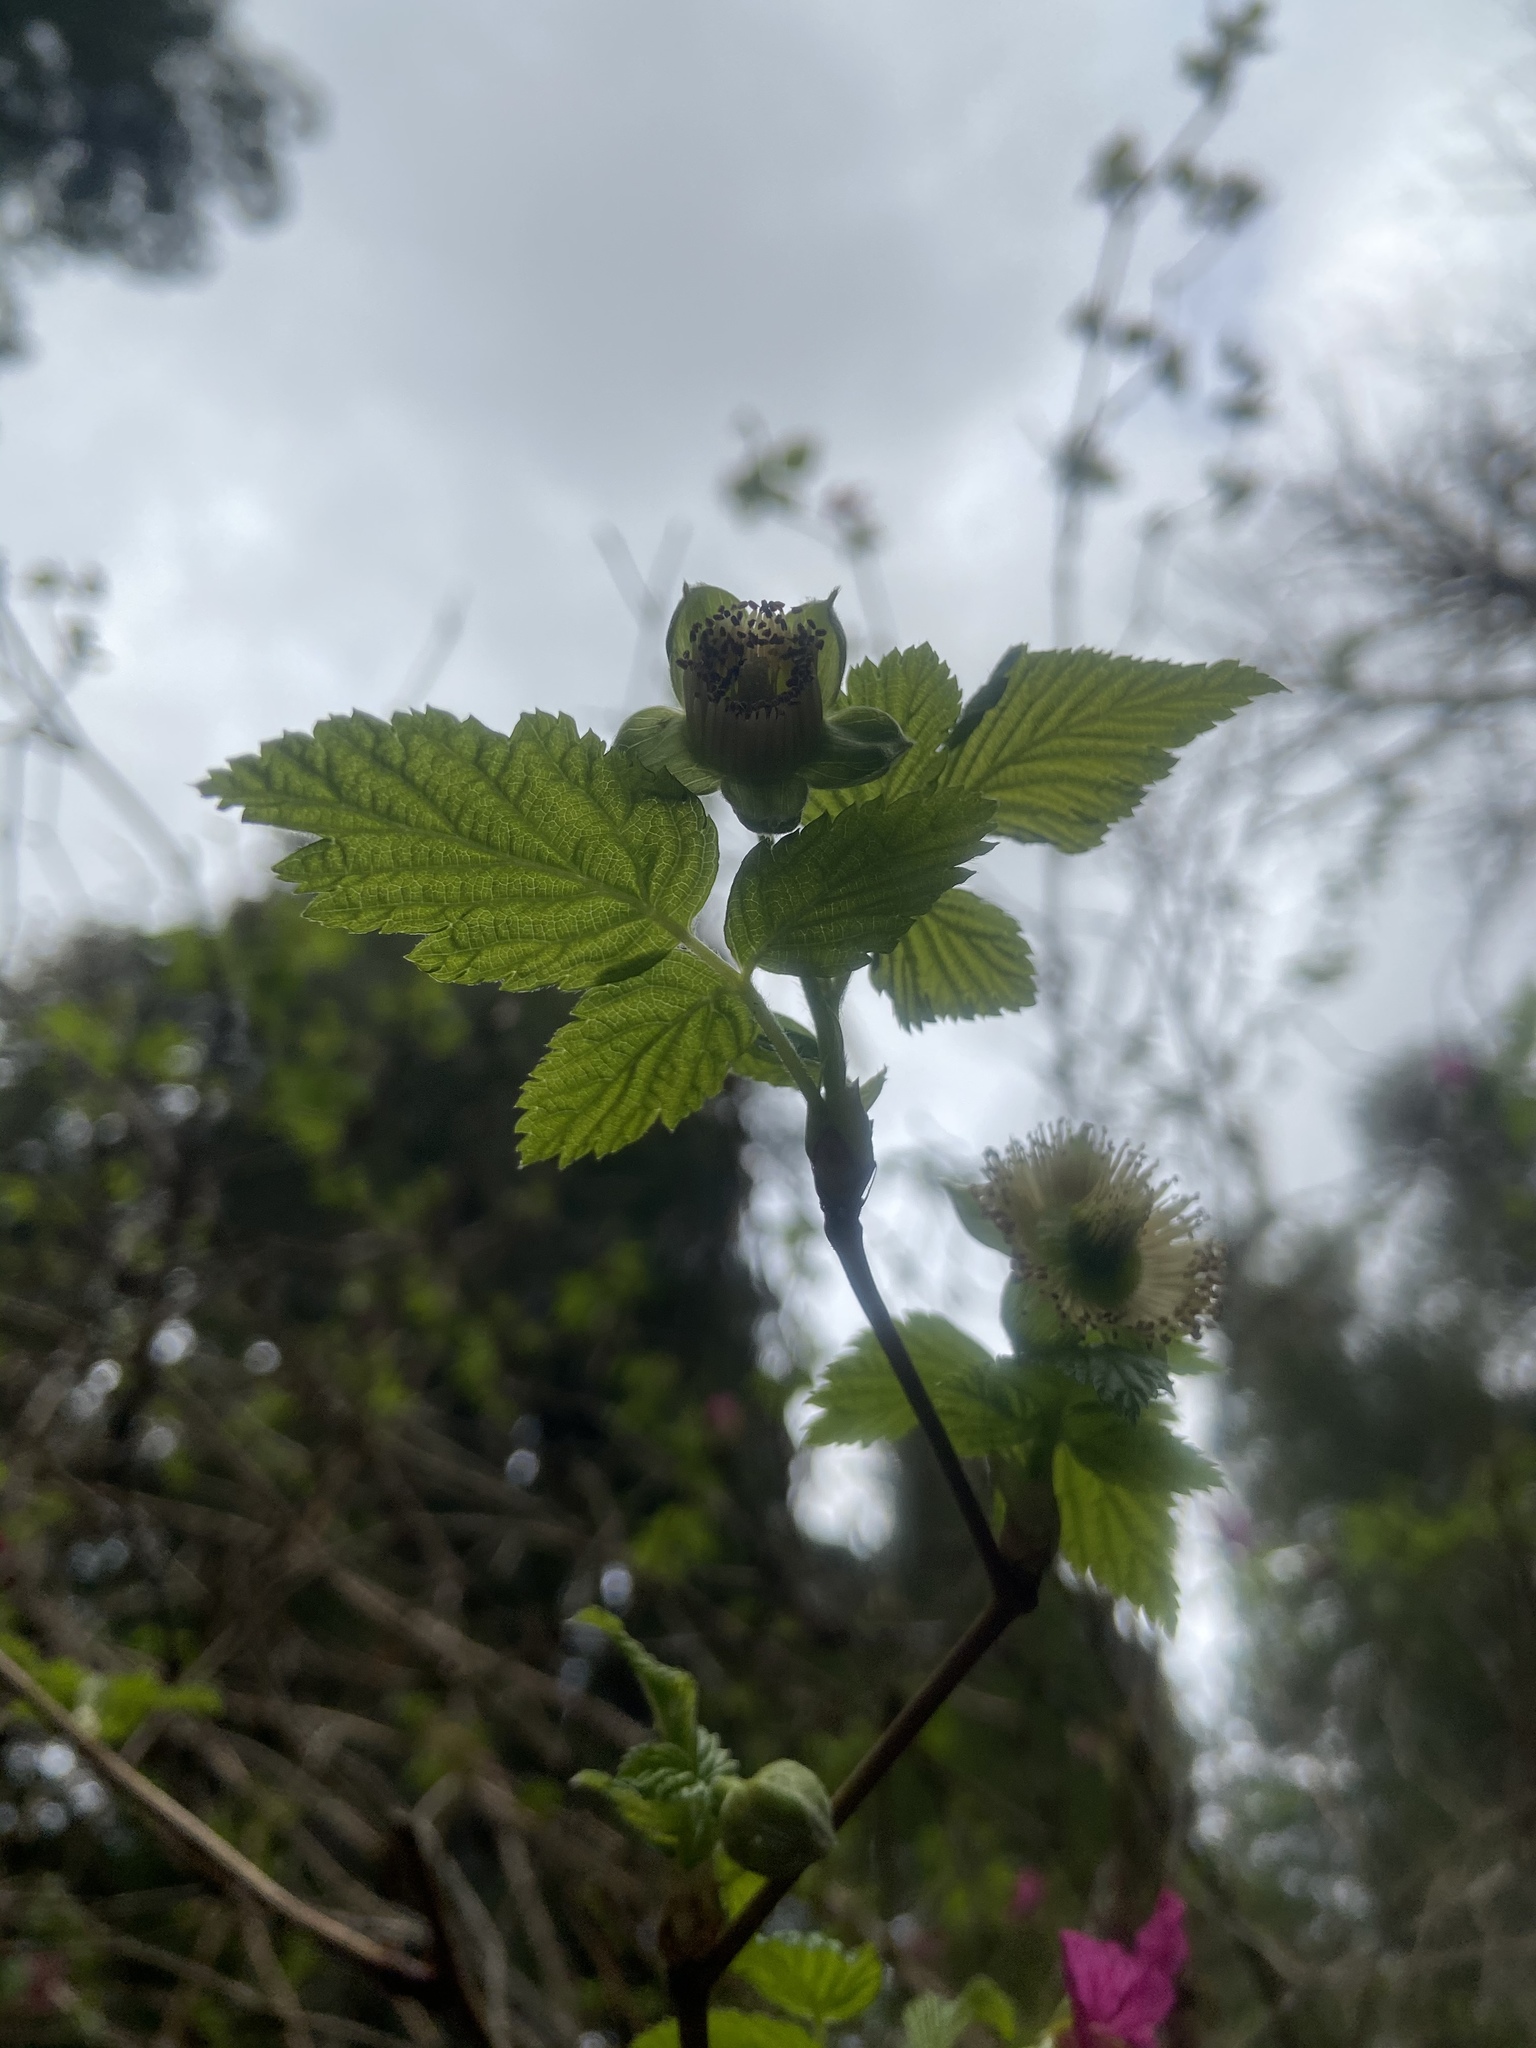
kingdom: Plantae
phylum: Tracheophyta
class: Magnoliopsida
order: Rosales
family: Rosaceae
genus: Rubus
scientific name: Rubus spectabilis
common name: Salmonberry
